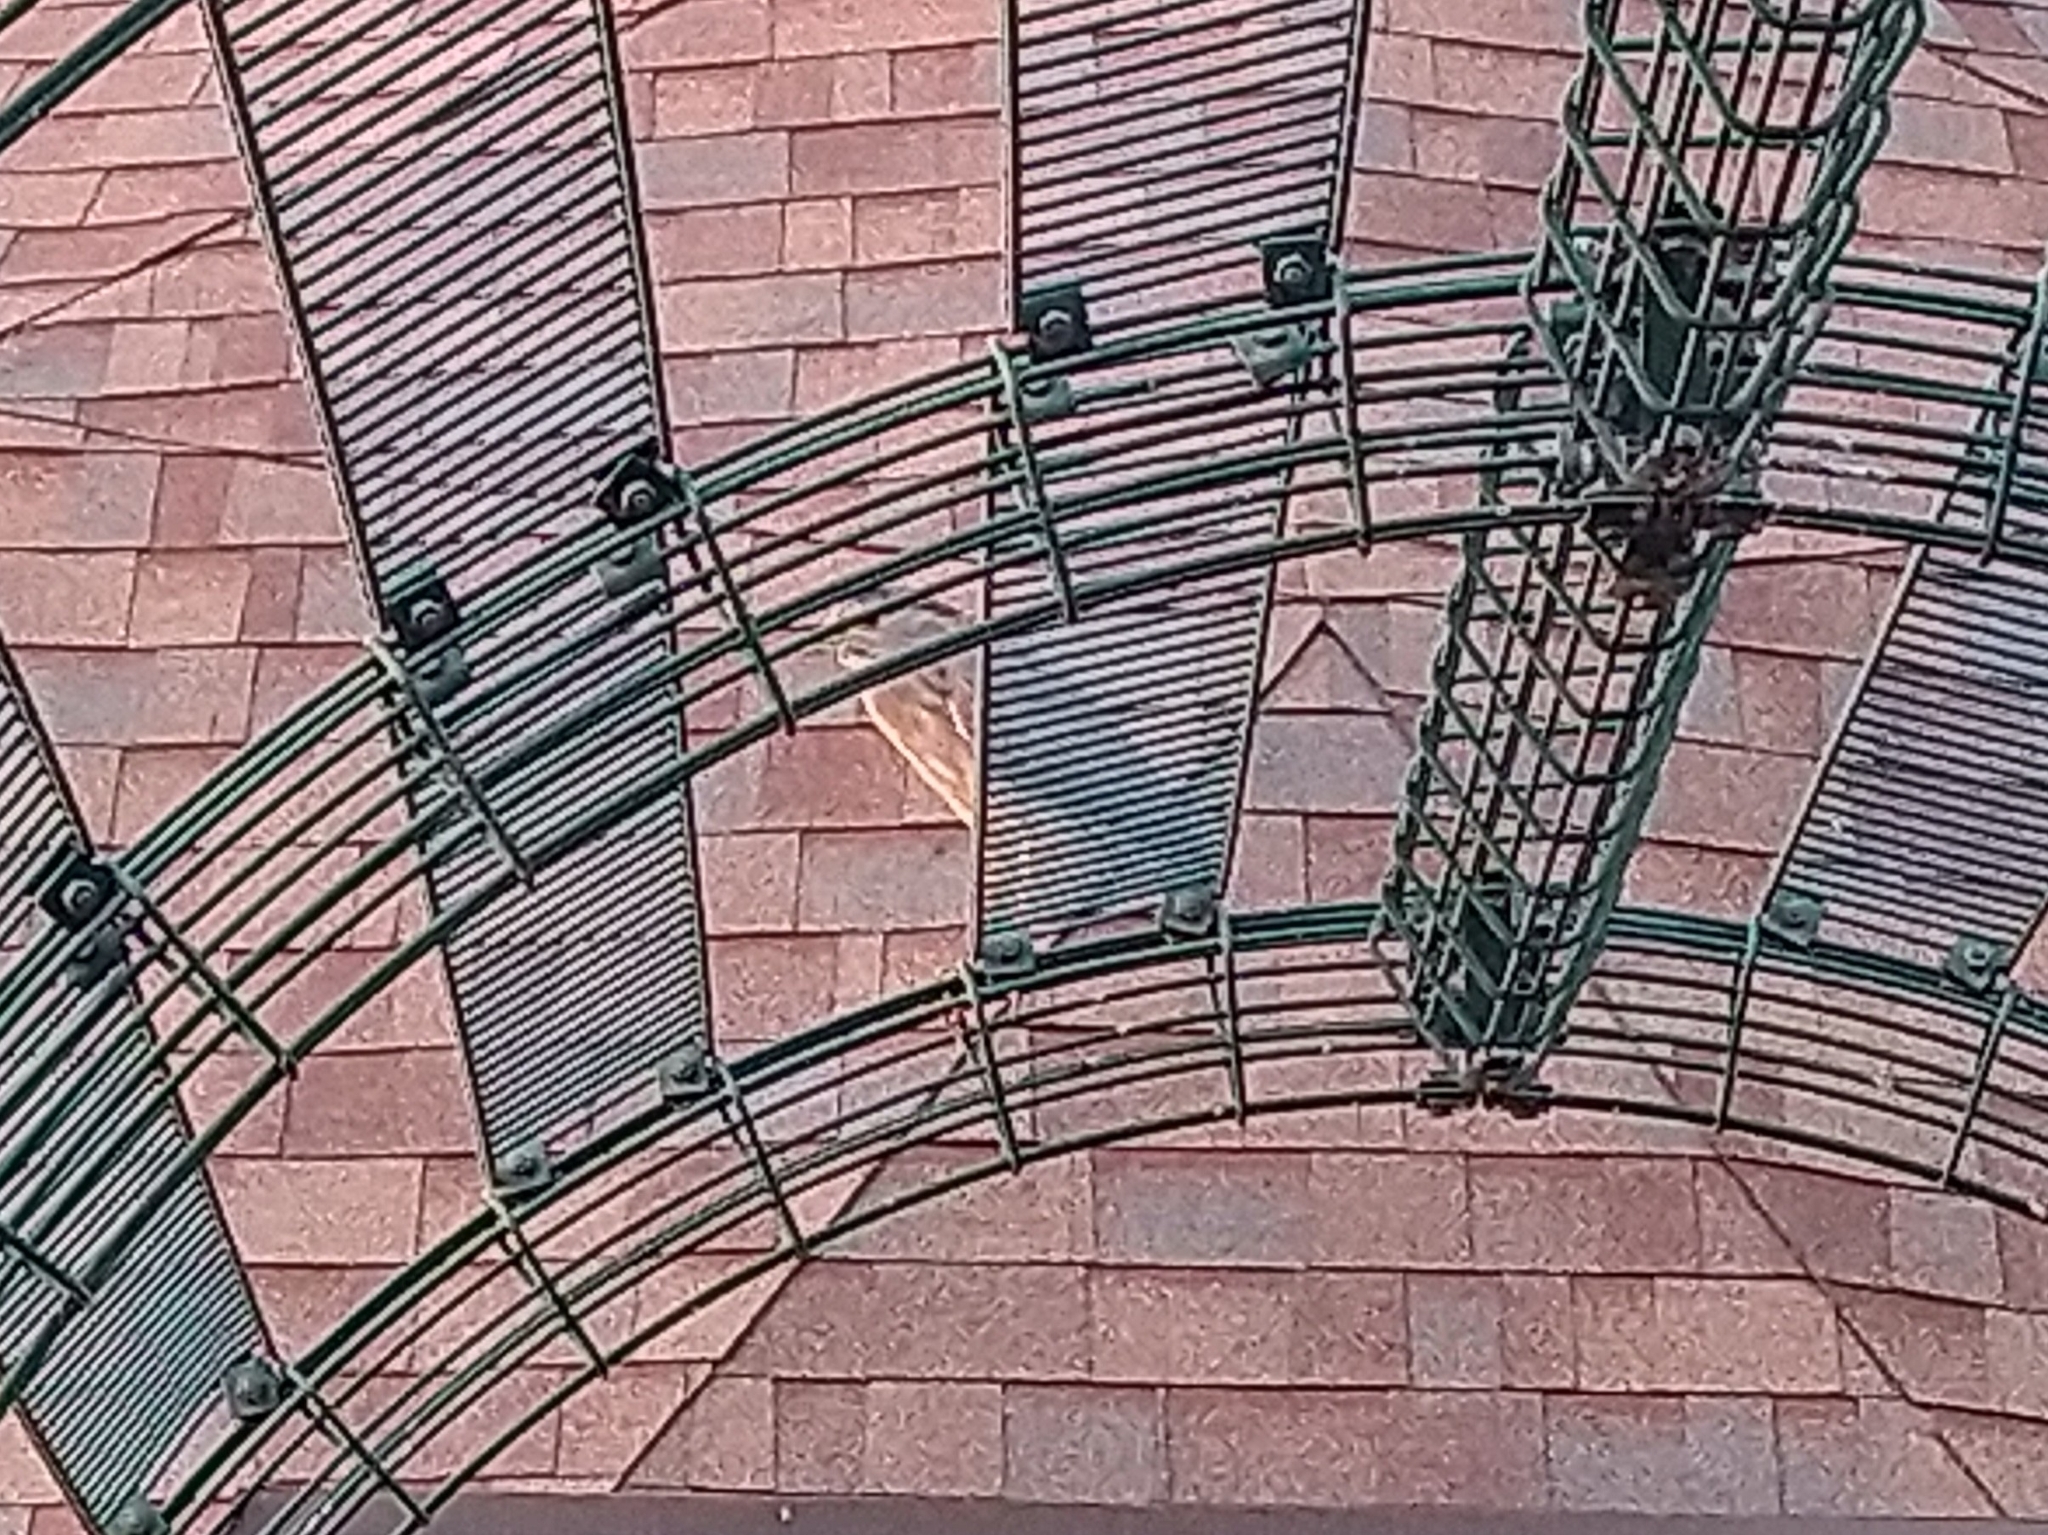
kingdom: Animalia
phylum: Chordata
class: Aves
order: Pelecaniformes
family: Ardeidae
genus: Nycticorax
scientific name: Nycticorax nycticorax
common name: Black-crowned night heron
